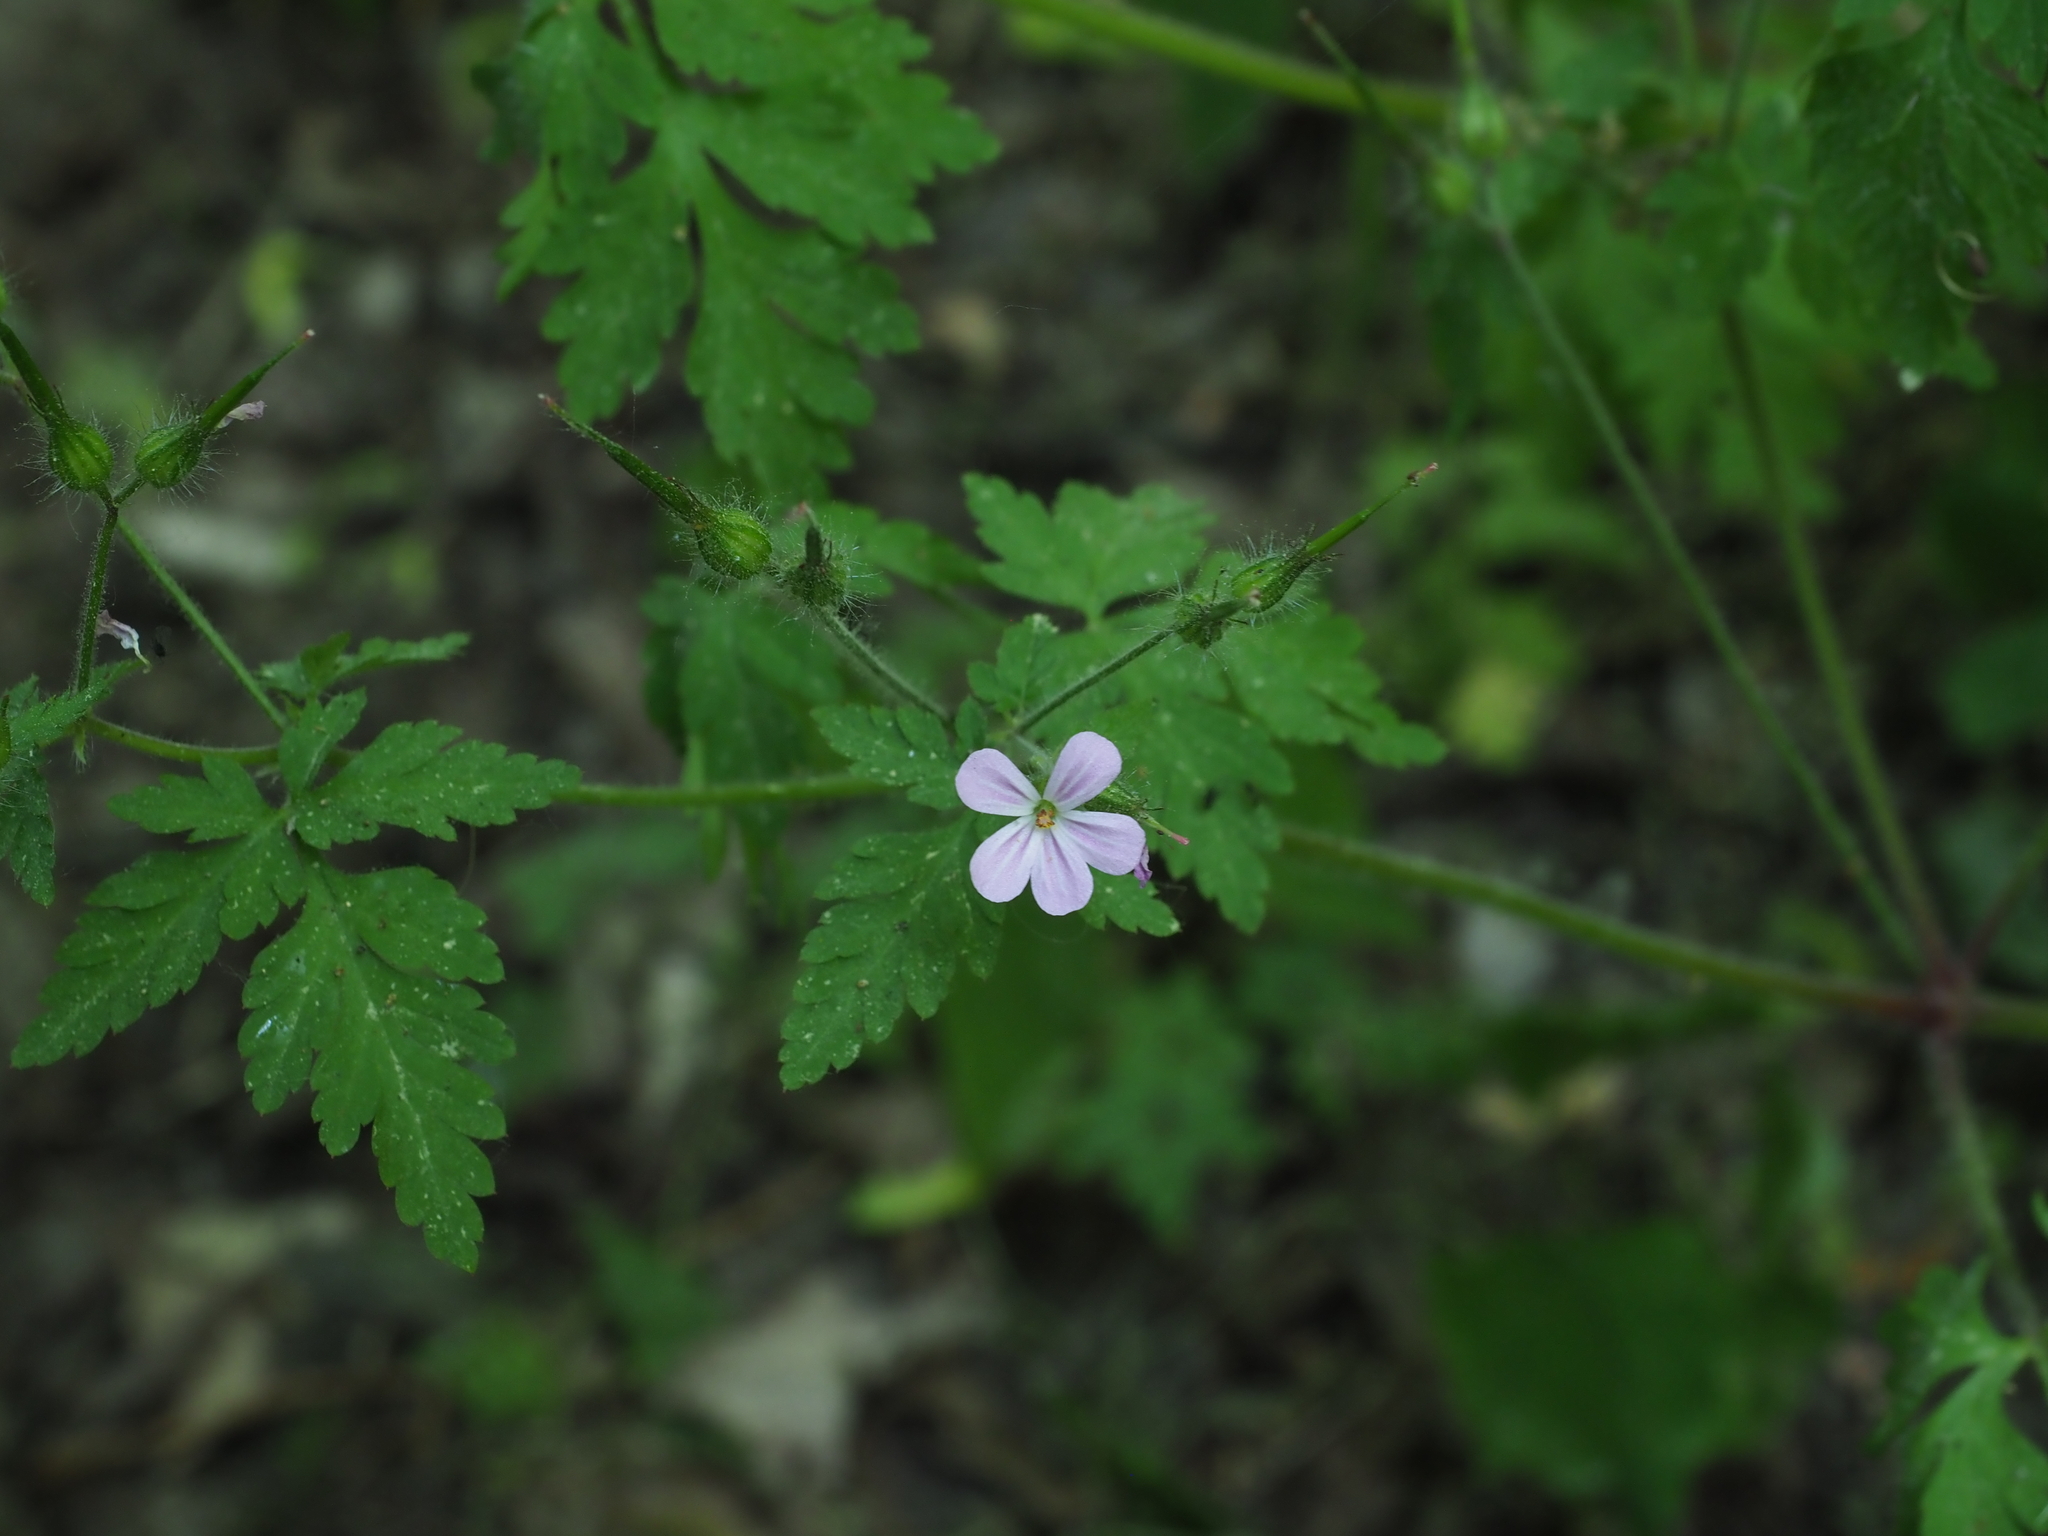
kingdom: Plantae
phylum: Tracheophyta
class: Magnoliopsida
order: Geraniales
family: Geraniaceae
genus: Geranium
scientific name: Geranium robertianum
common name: Herb-robert
